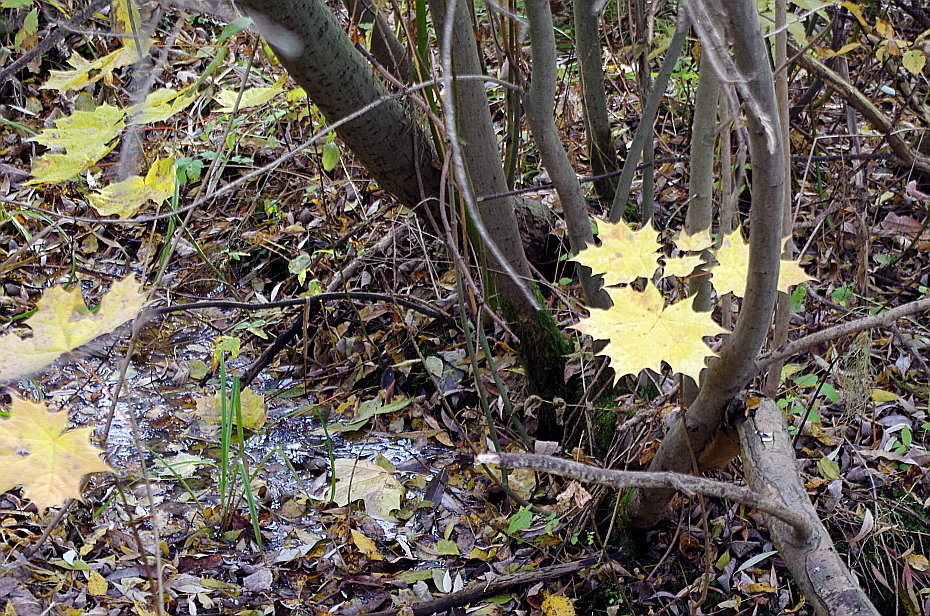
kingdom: Plantae
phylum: Tracheophyta
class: Magnoliopsida
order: Sapindales
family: Sapindaceae
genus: Acer
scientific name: Acer platanoides
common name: Norway maple
